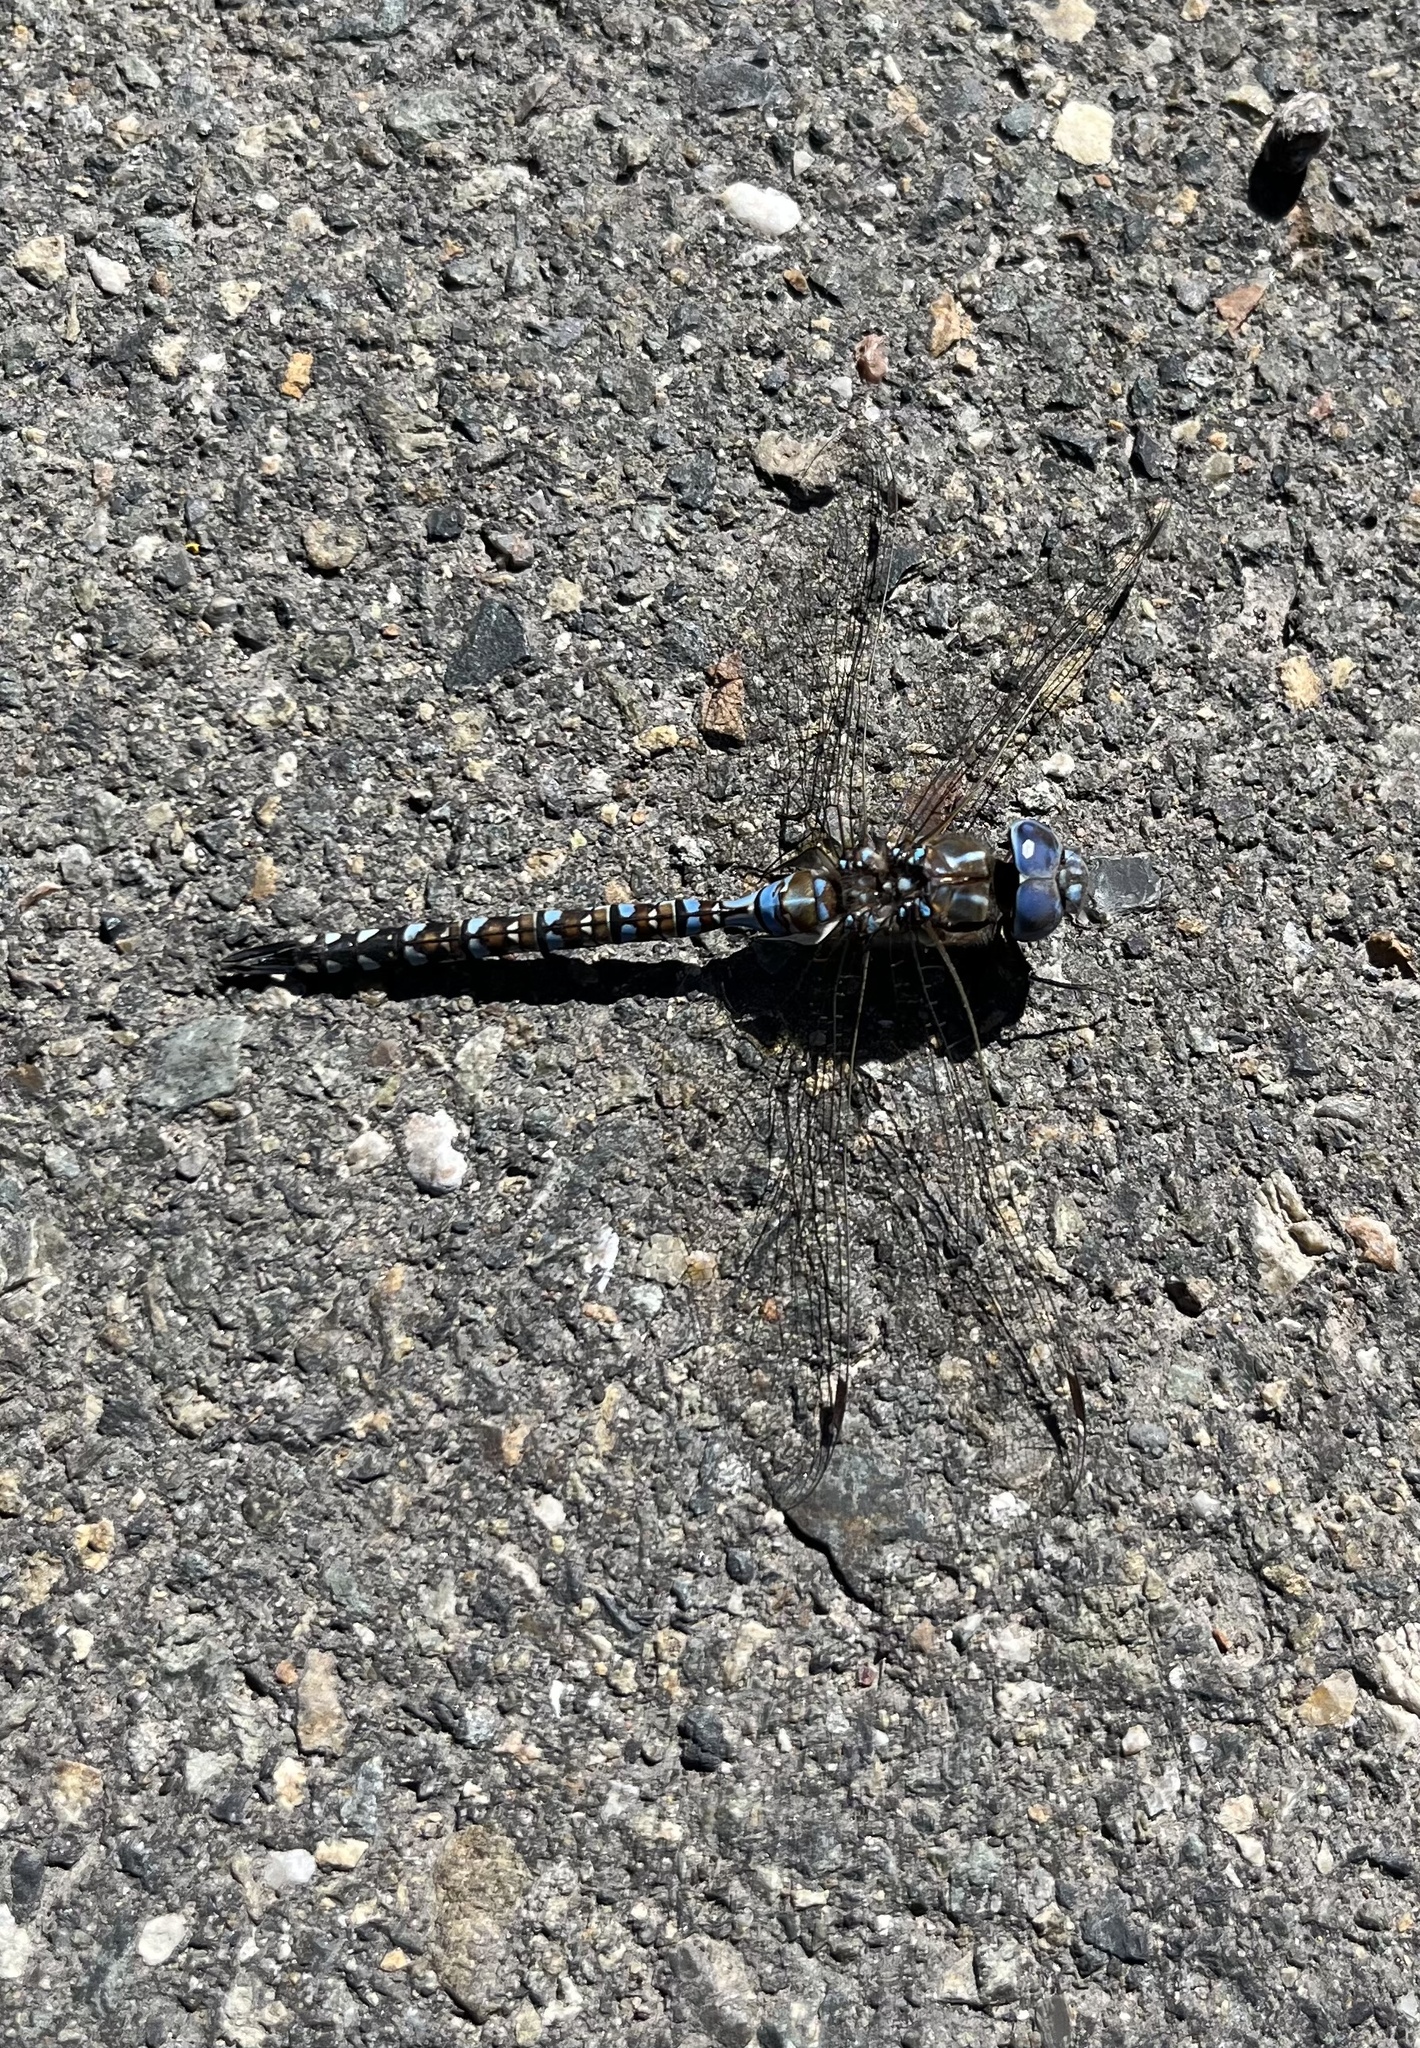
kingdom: Animalia
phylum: Arthropoda
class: Insecta
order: Odonata
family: Aeshnidae
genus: Rhionaeschna
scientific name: Rhionaeschna multicolor
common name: Blue-eyed darner
